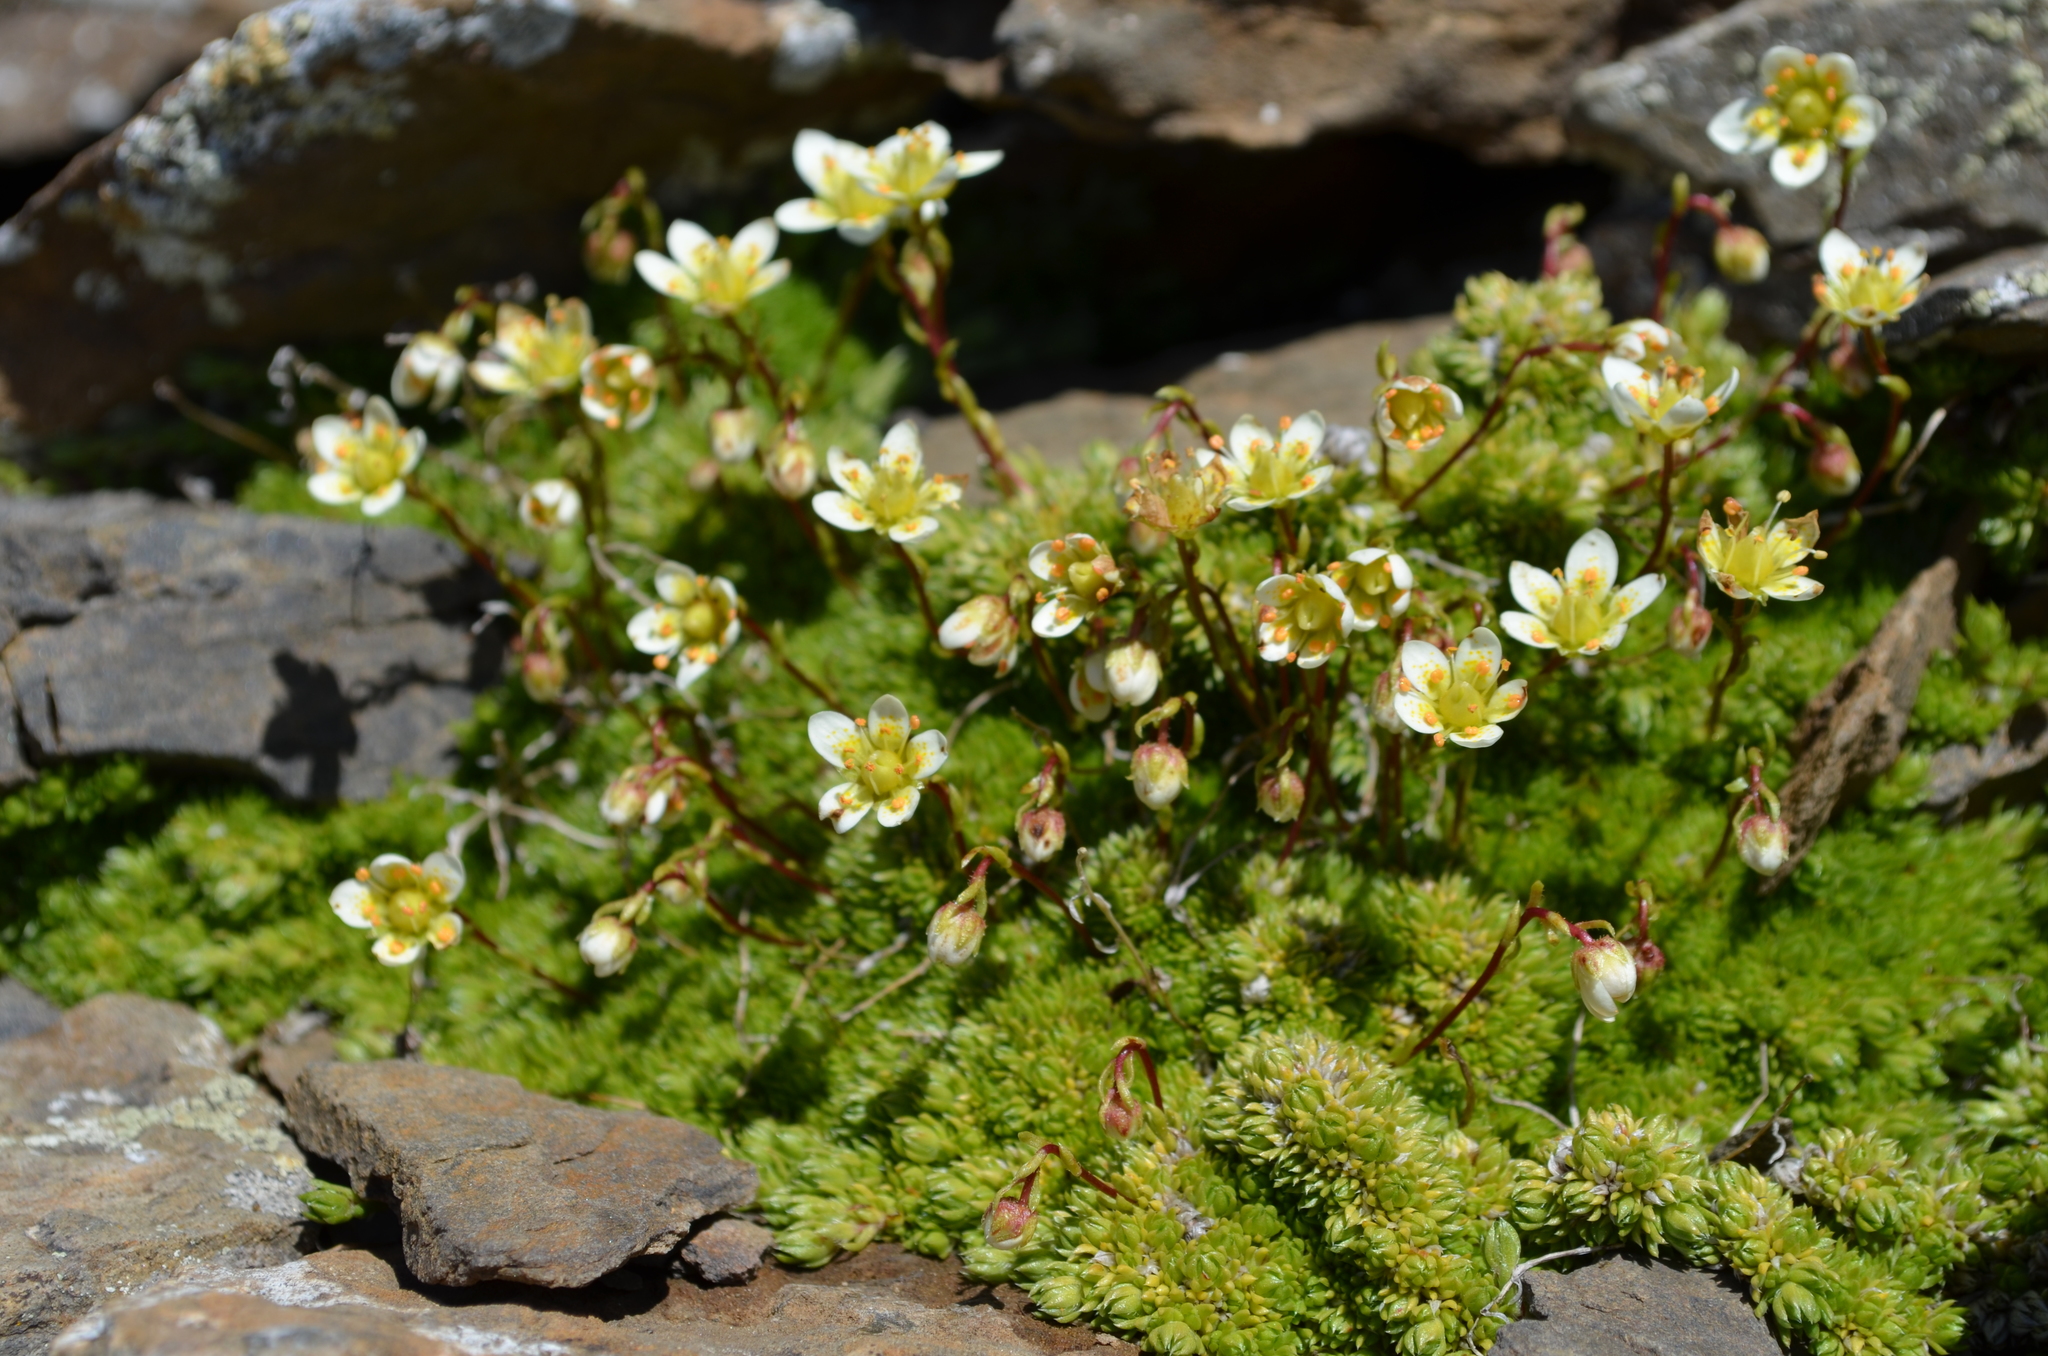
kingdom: Plantae
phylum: Tracheophyta
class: Magnoliopsida
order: Saxifragales
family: Saxifragaceae
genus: Saxifraga
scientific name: Saxifraga bryoides
